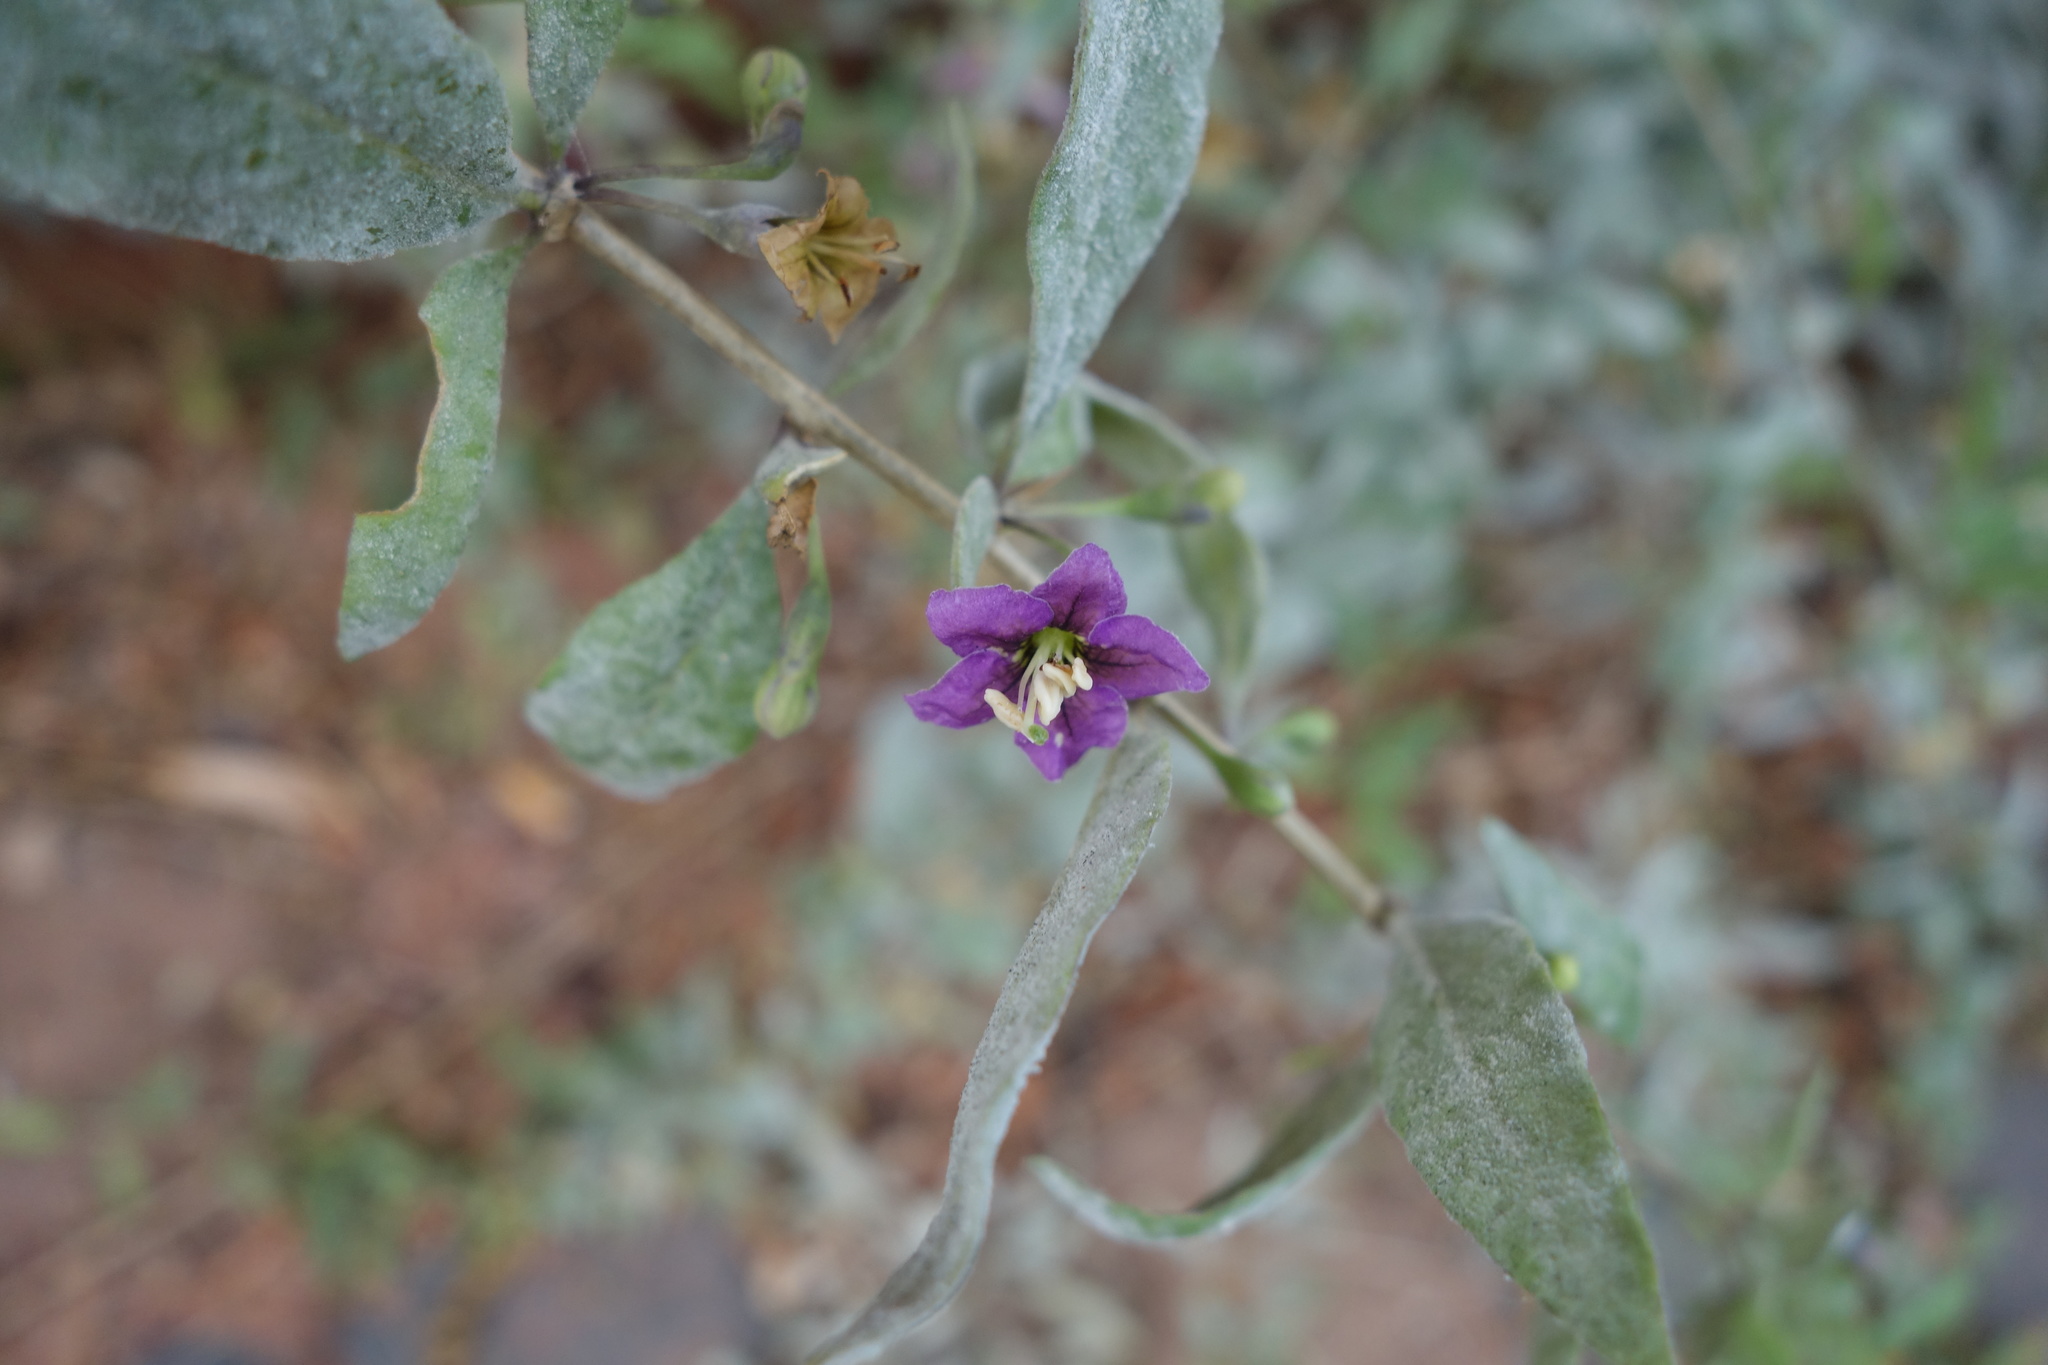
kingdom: Plantae
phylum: Tracheophyta
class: Magnoliopsida
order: Solanales
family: Solanaceae
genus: Lycium
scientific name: Lycium barbarum
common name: Duke of argyll's teaplant
